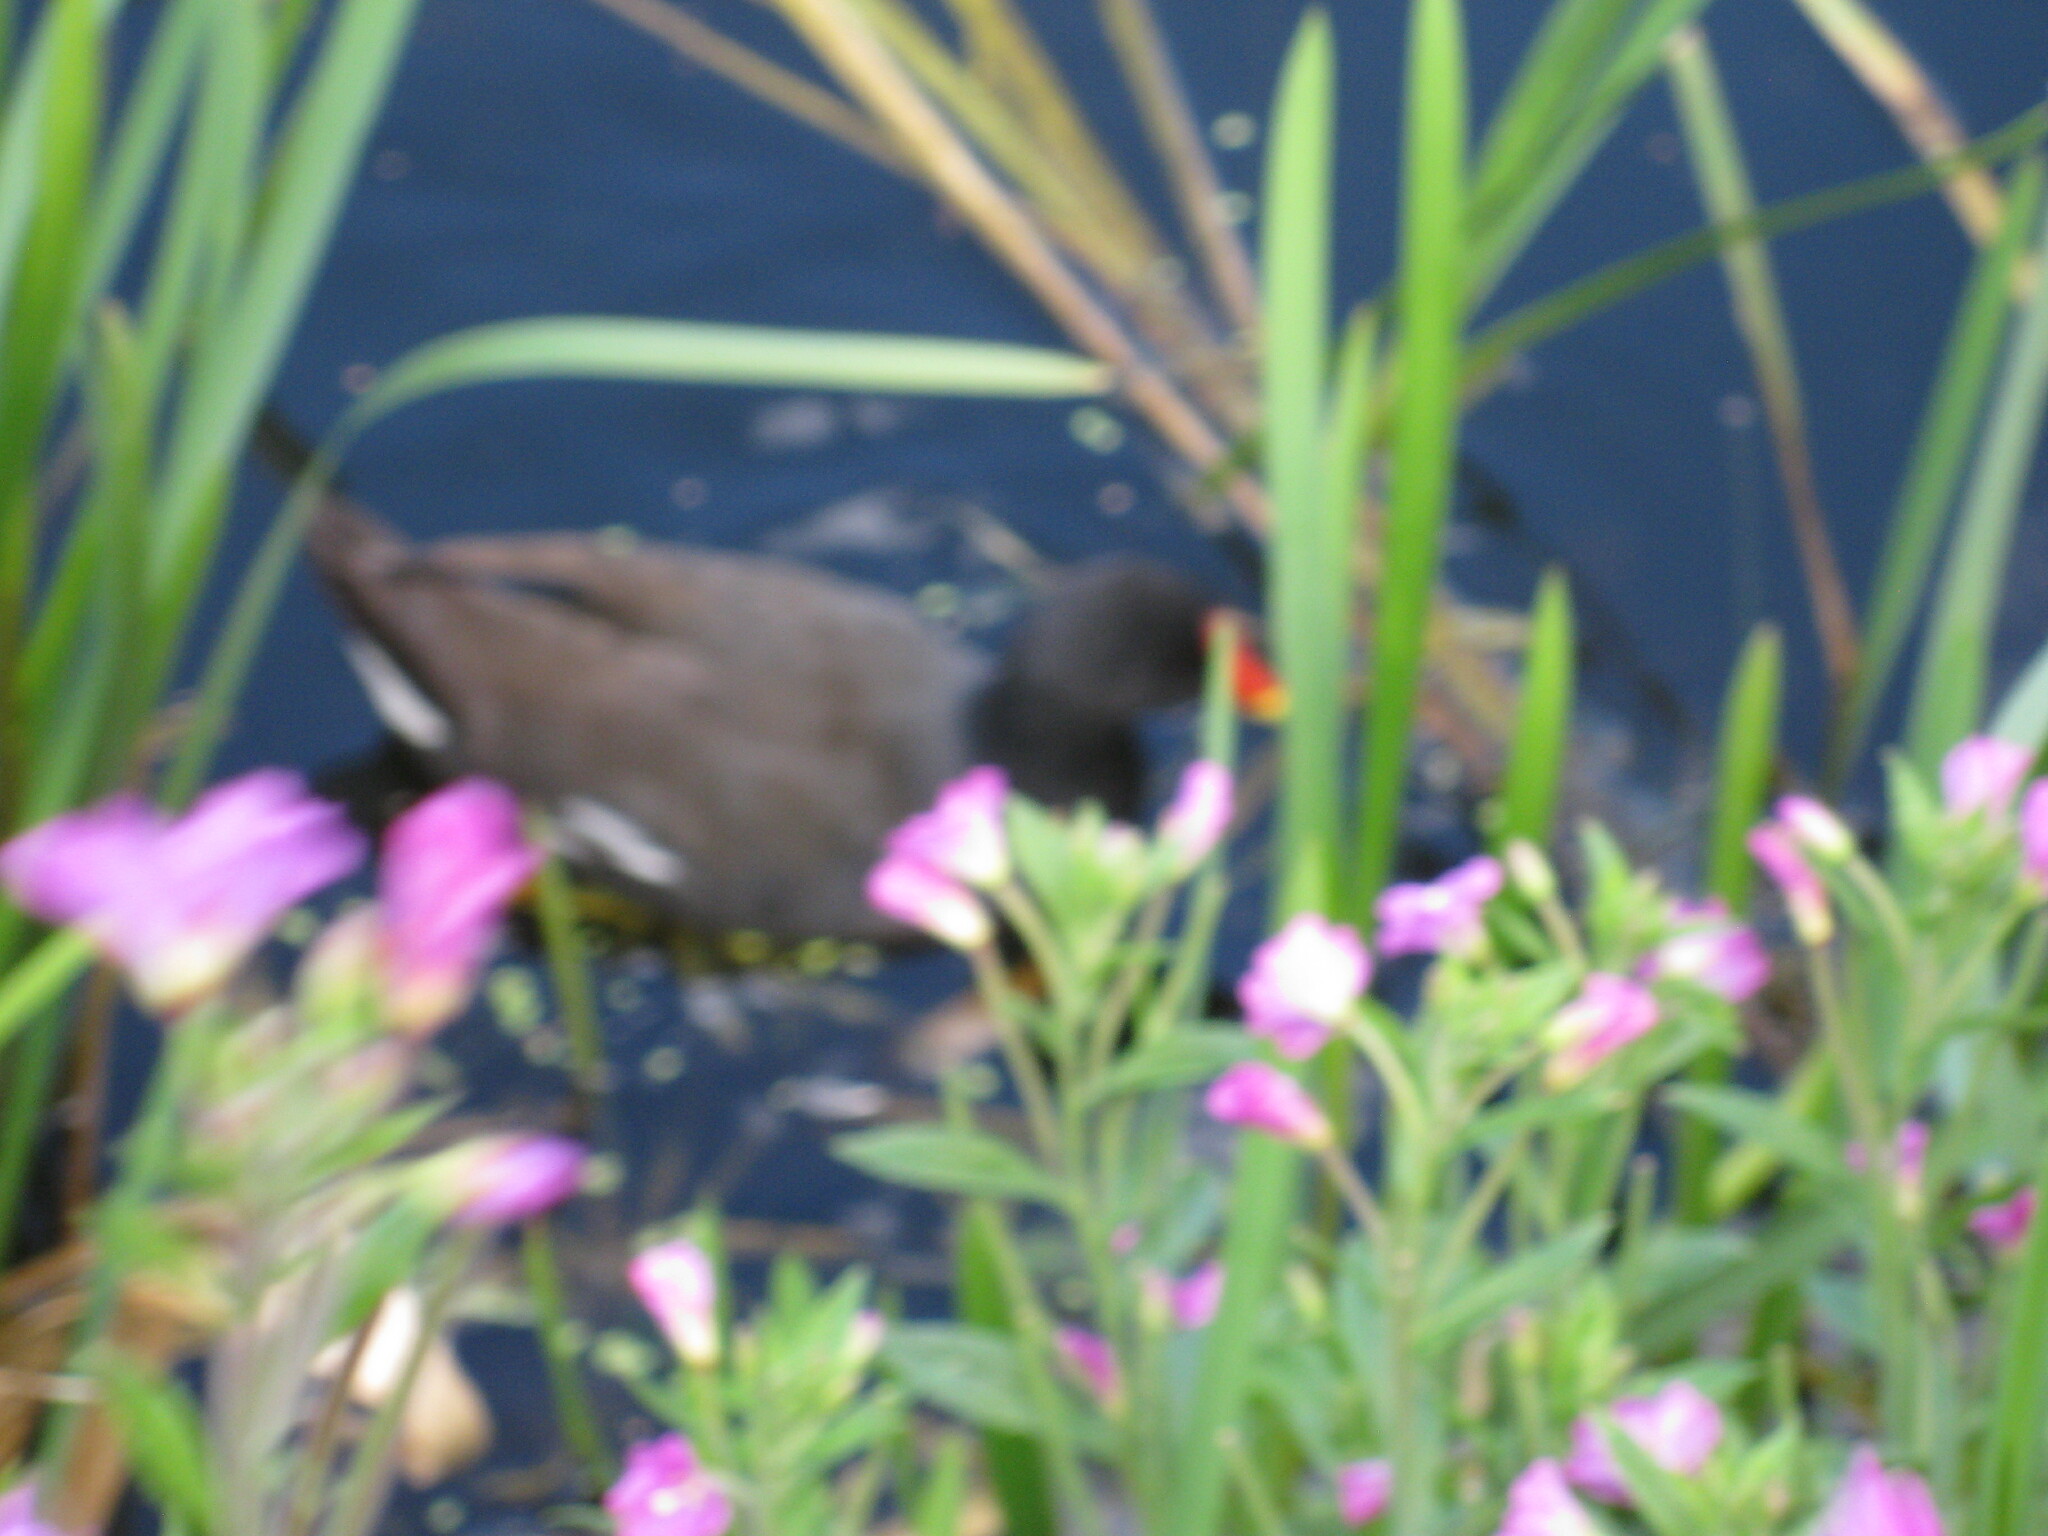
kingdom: Animalia
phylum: Chordata
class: Aves
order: Gruiformes
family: Rallidae
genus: Gallinula
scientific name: Gallinula chloropus
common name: Common moorhen
